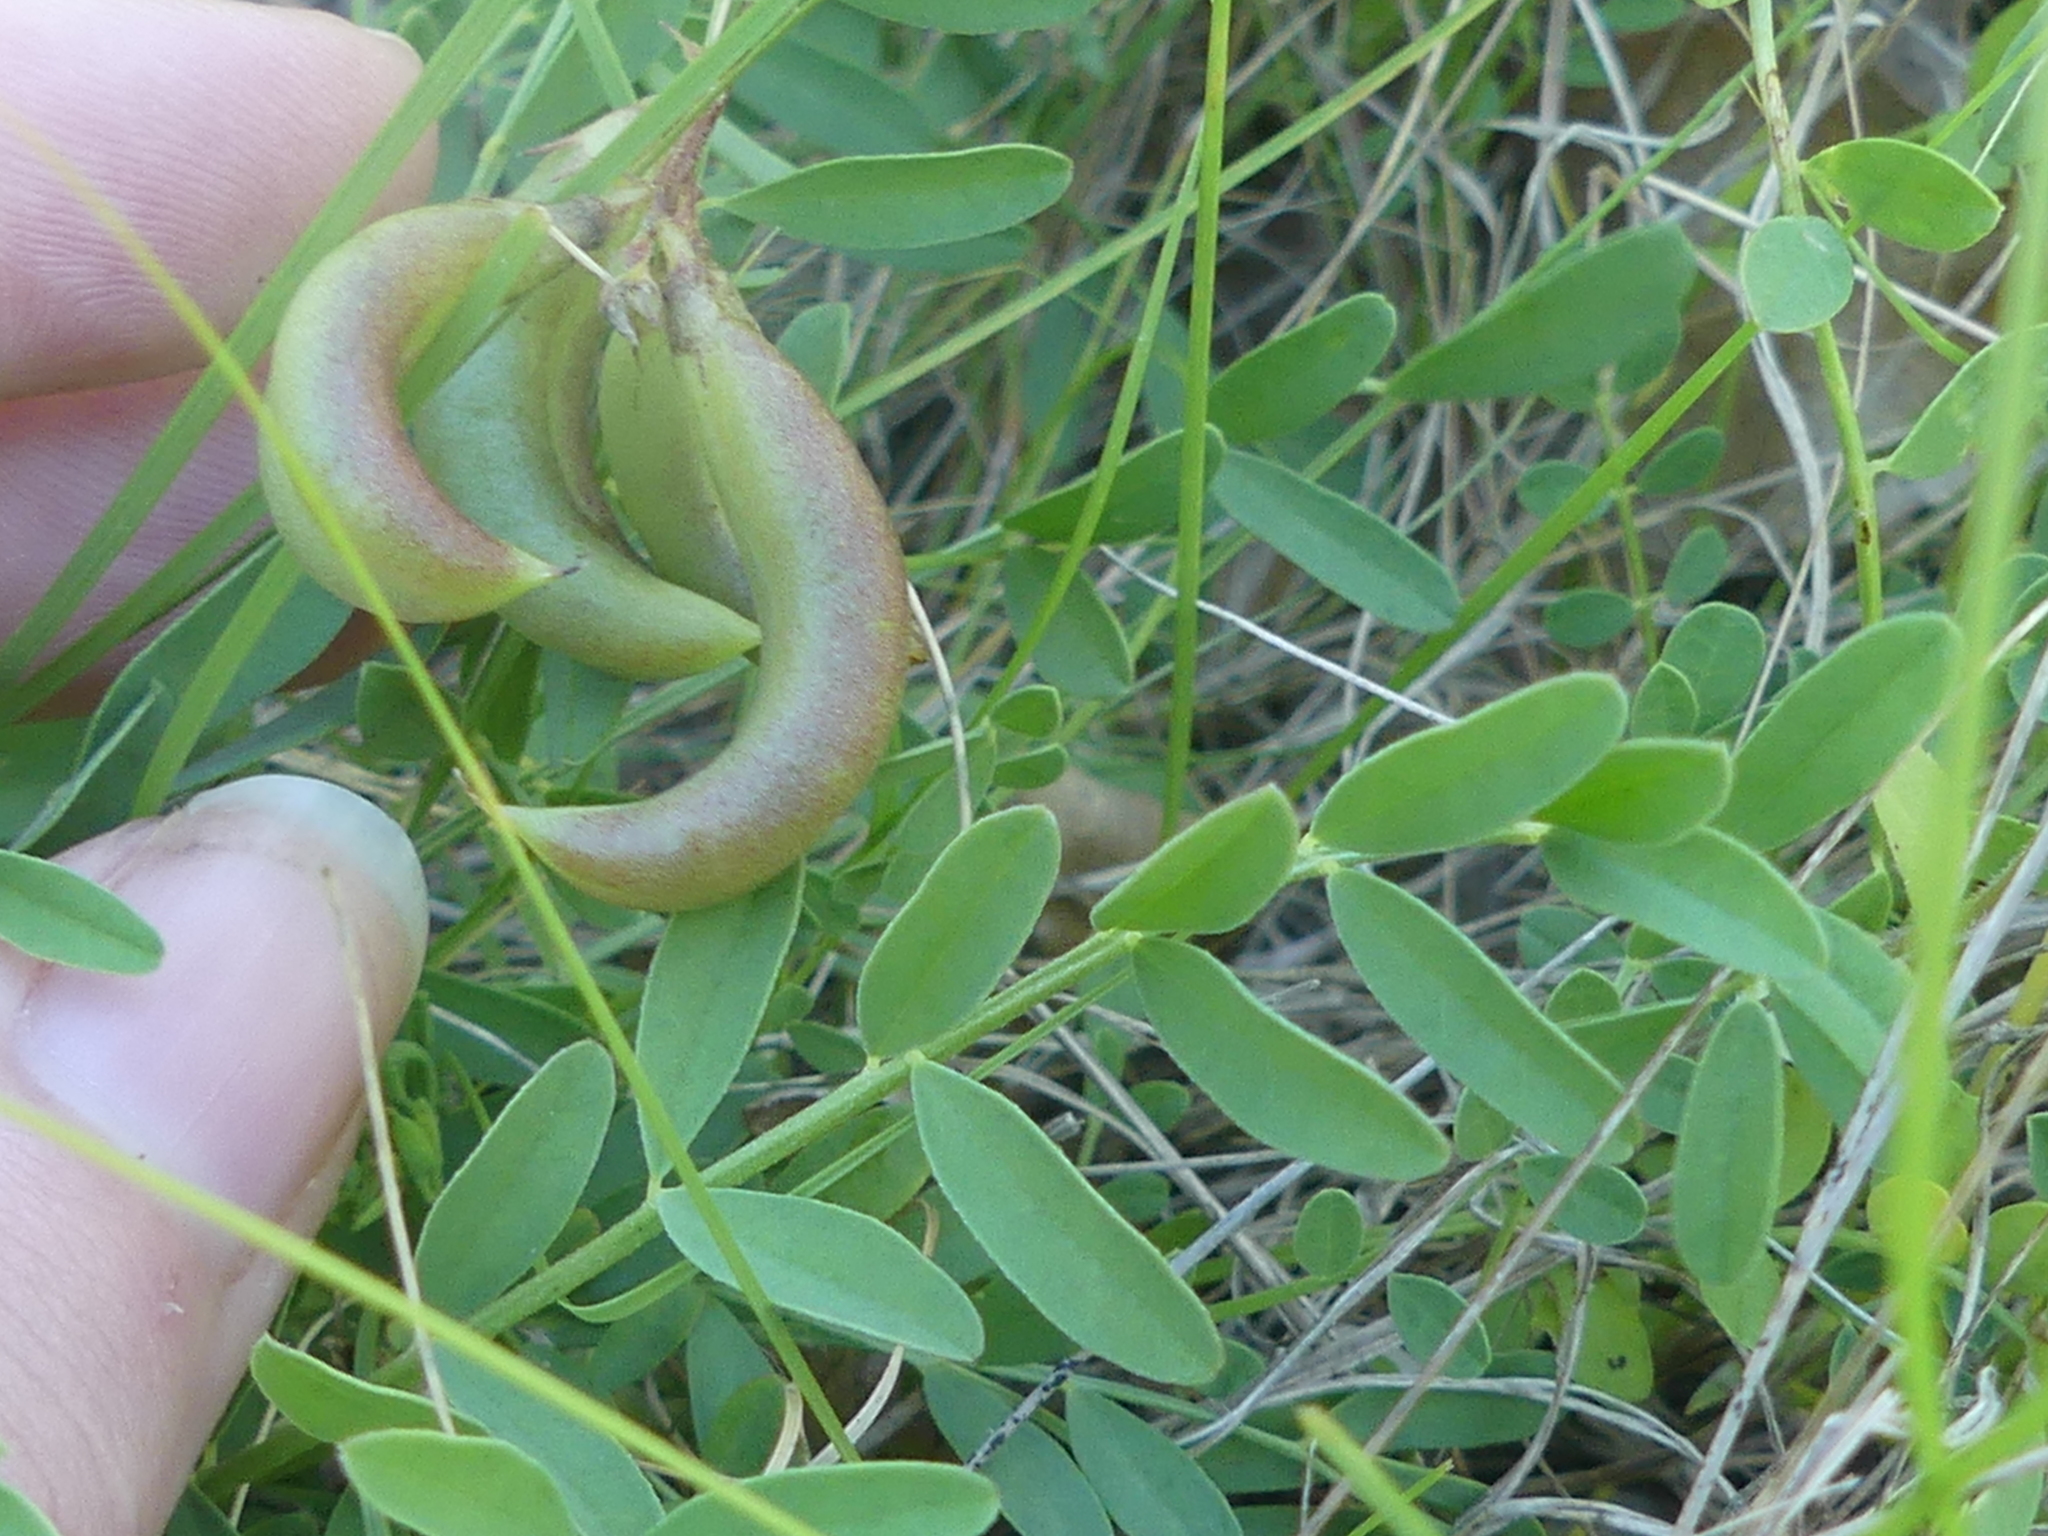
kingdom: Plantae
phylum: Tracheophyta
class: Magnoliopsida
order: Fabales
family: Fabaceae
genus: Vicia
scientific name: Vicia ludoviciana
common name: Louisiana vetch
